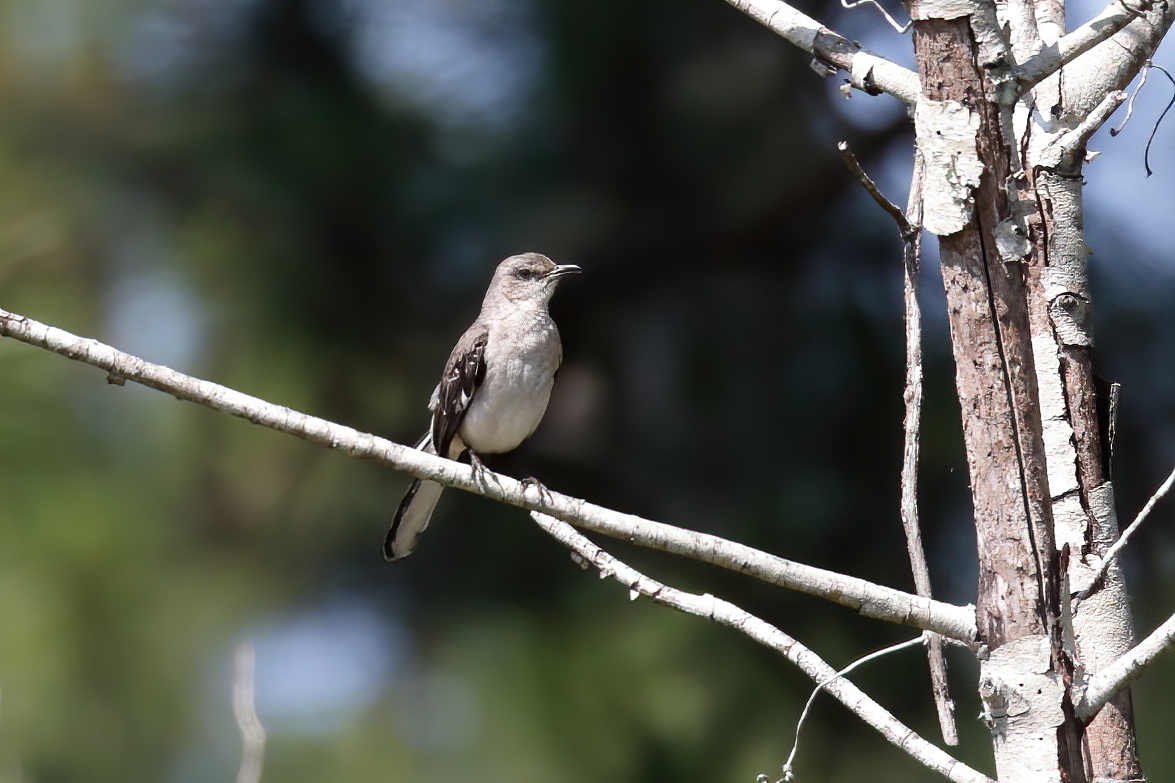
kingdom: Animalia
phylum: Chordata
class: Aves
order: Passeriformes
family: Mimidae
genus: Mimus
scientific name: Mimus polyglottos
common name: Northern mockingbird
